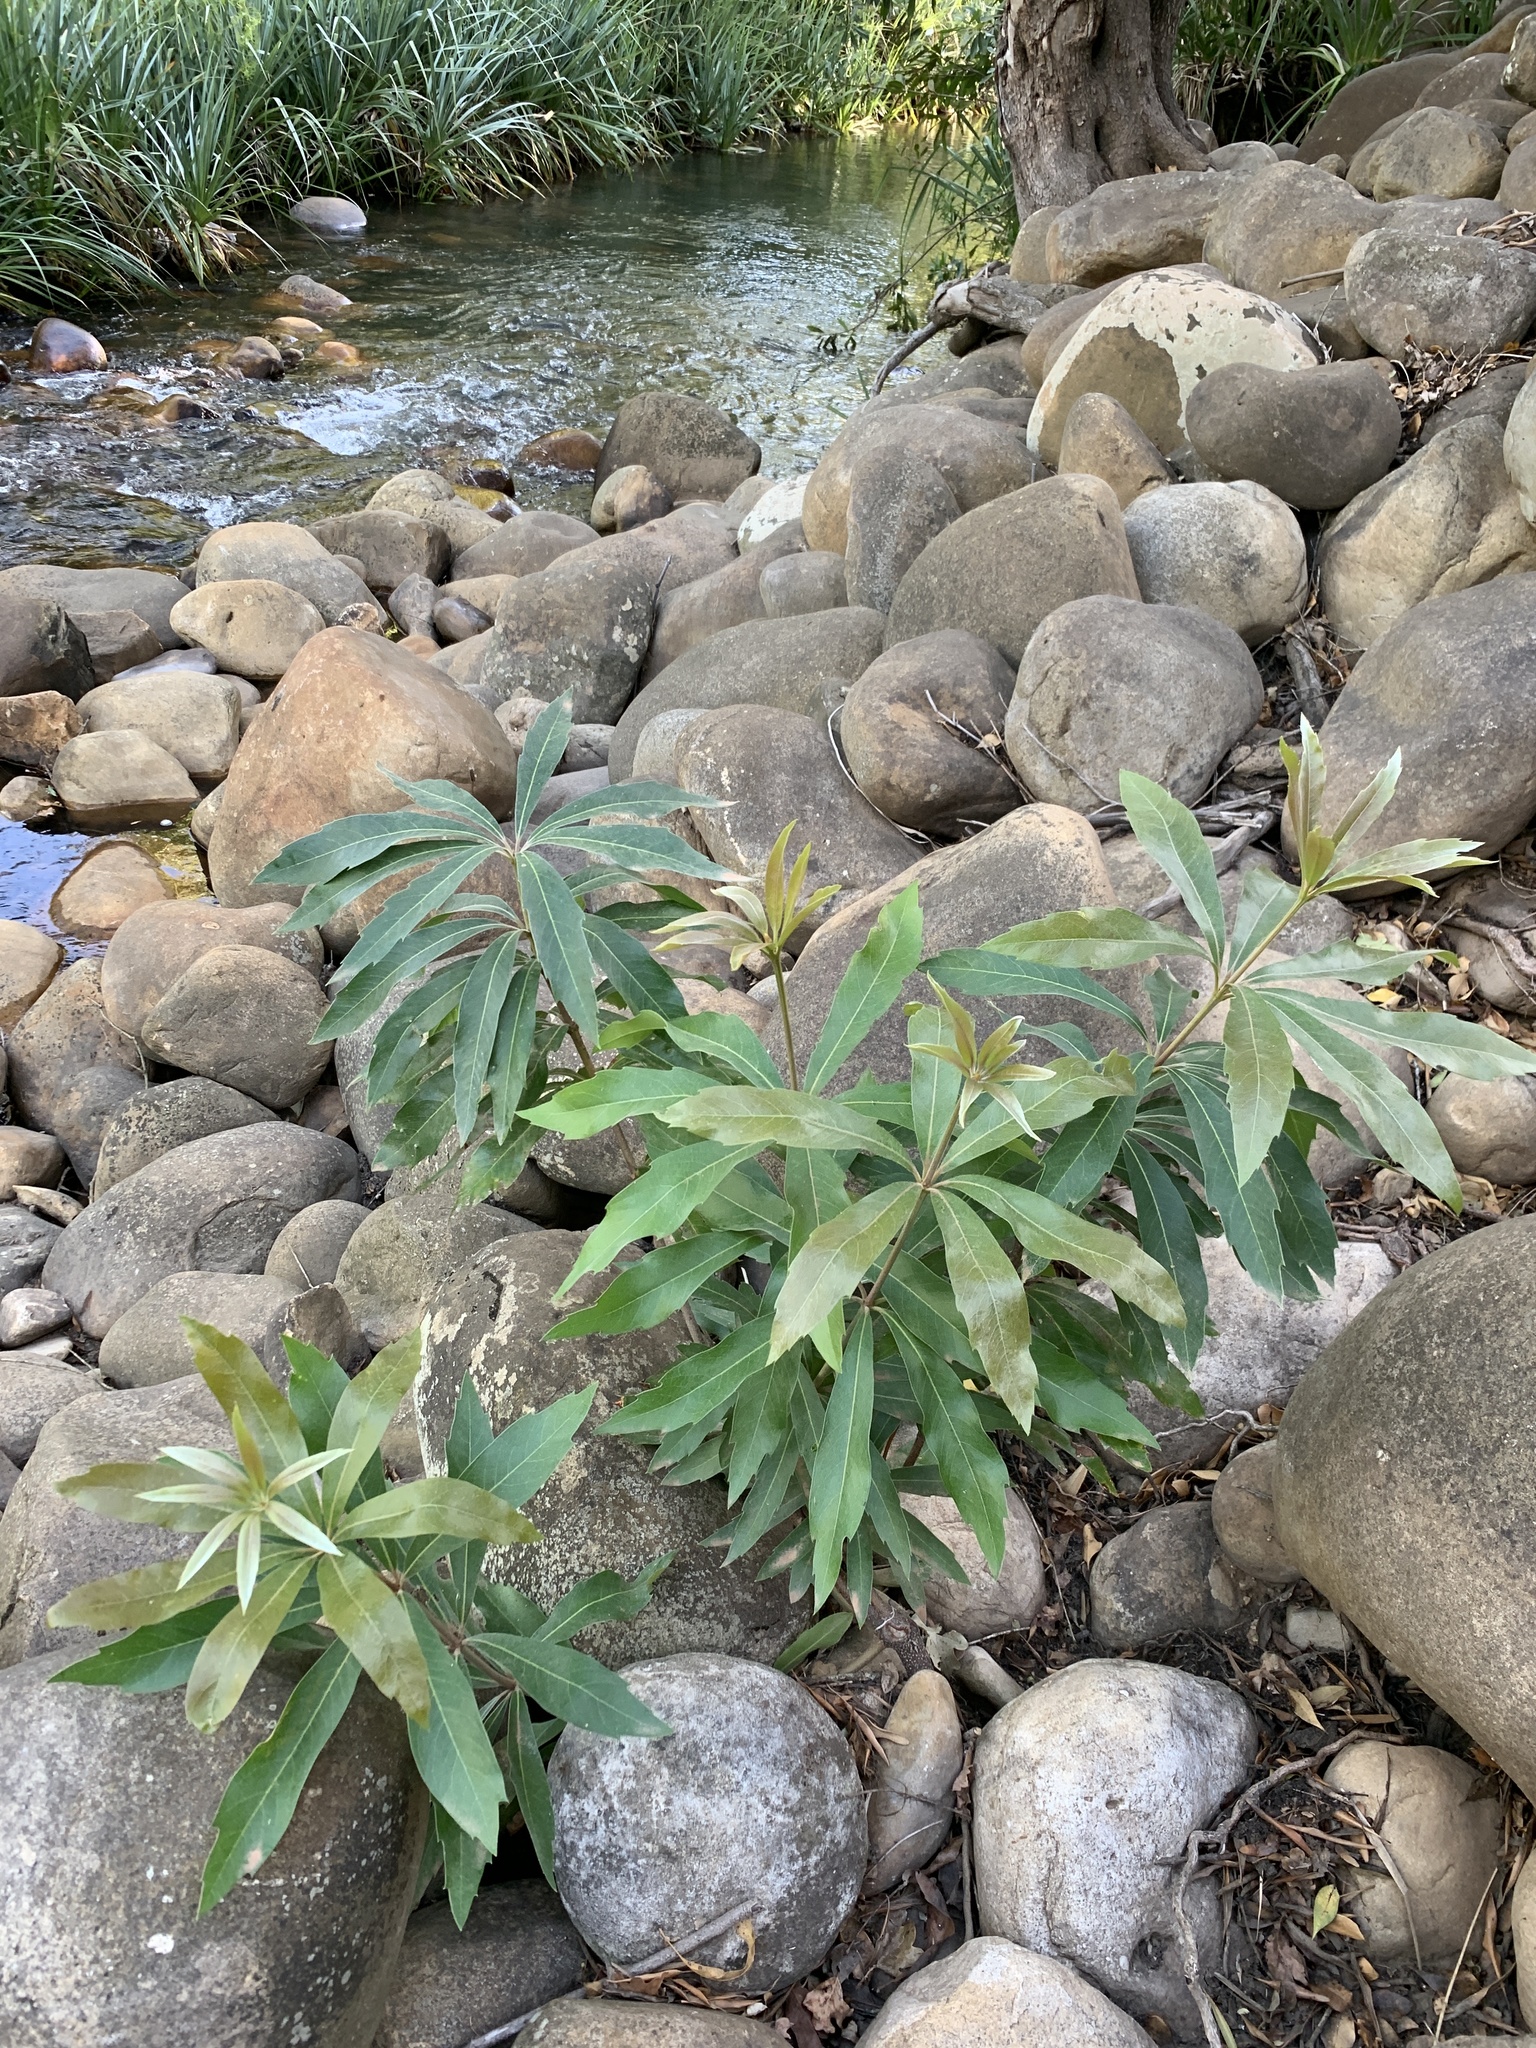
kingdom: Plantae
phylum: Tracheophyta
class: Magnoliopsida
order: Proteales
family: Proteaceae
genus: Brabejum
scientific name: Brabejum stellatifolium
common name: Wild almond
